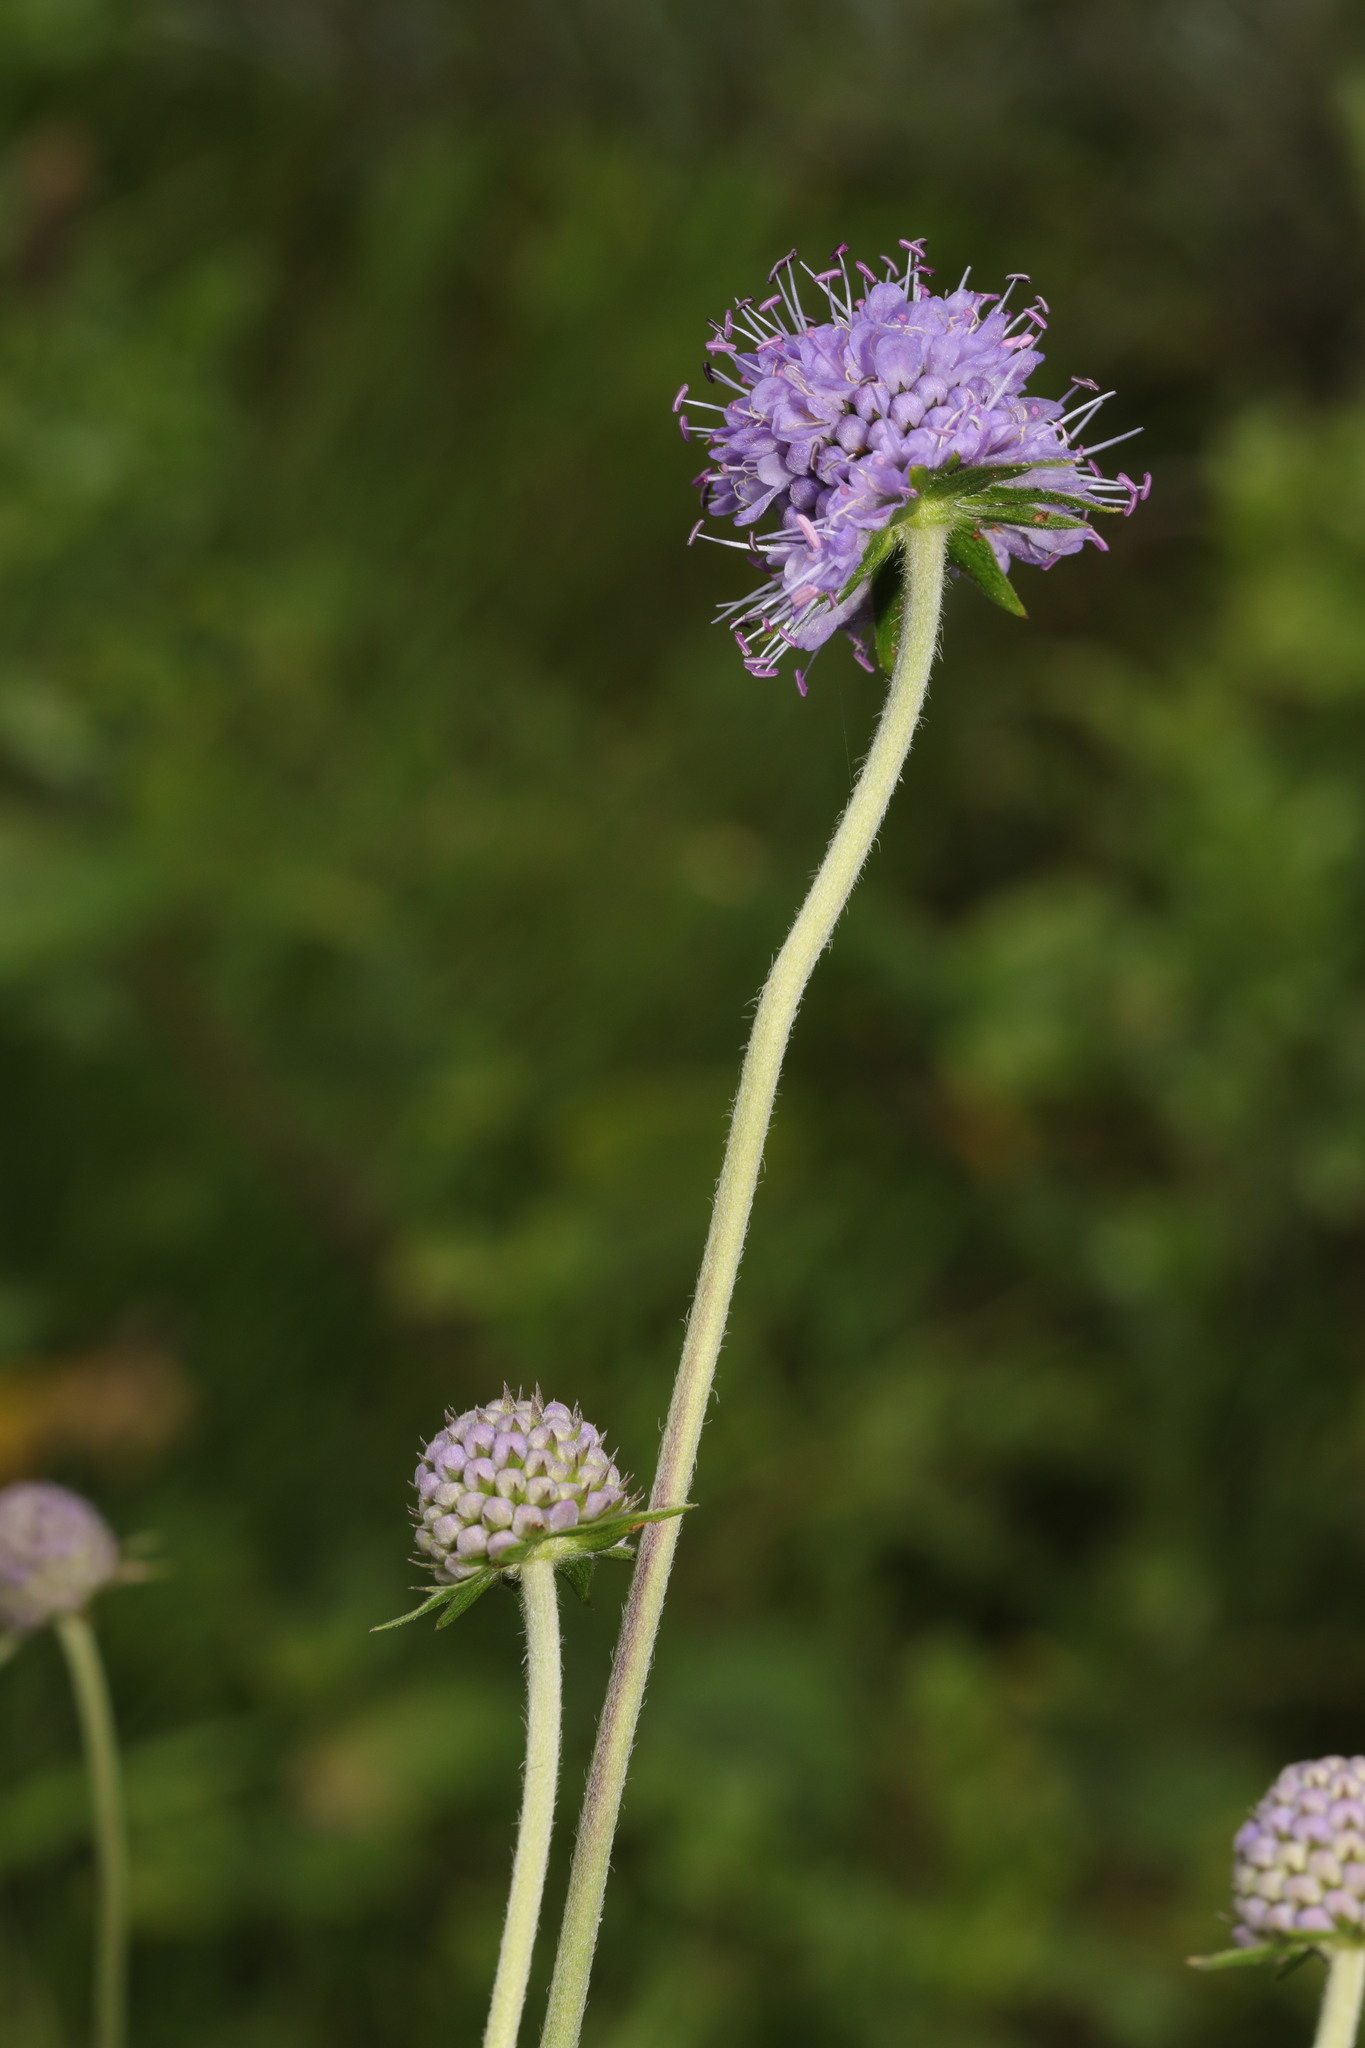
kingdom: Plantae
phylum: Tracheophyta
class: Magnoliopsida
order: Dipsacales
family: Caprifoliaceae
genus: Succisa
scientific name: Succisa pratensis
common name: Devil's-bit
